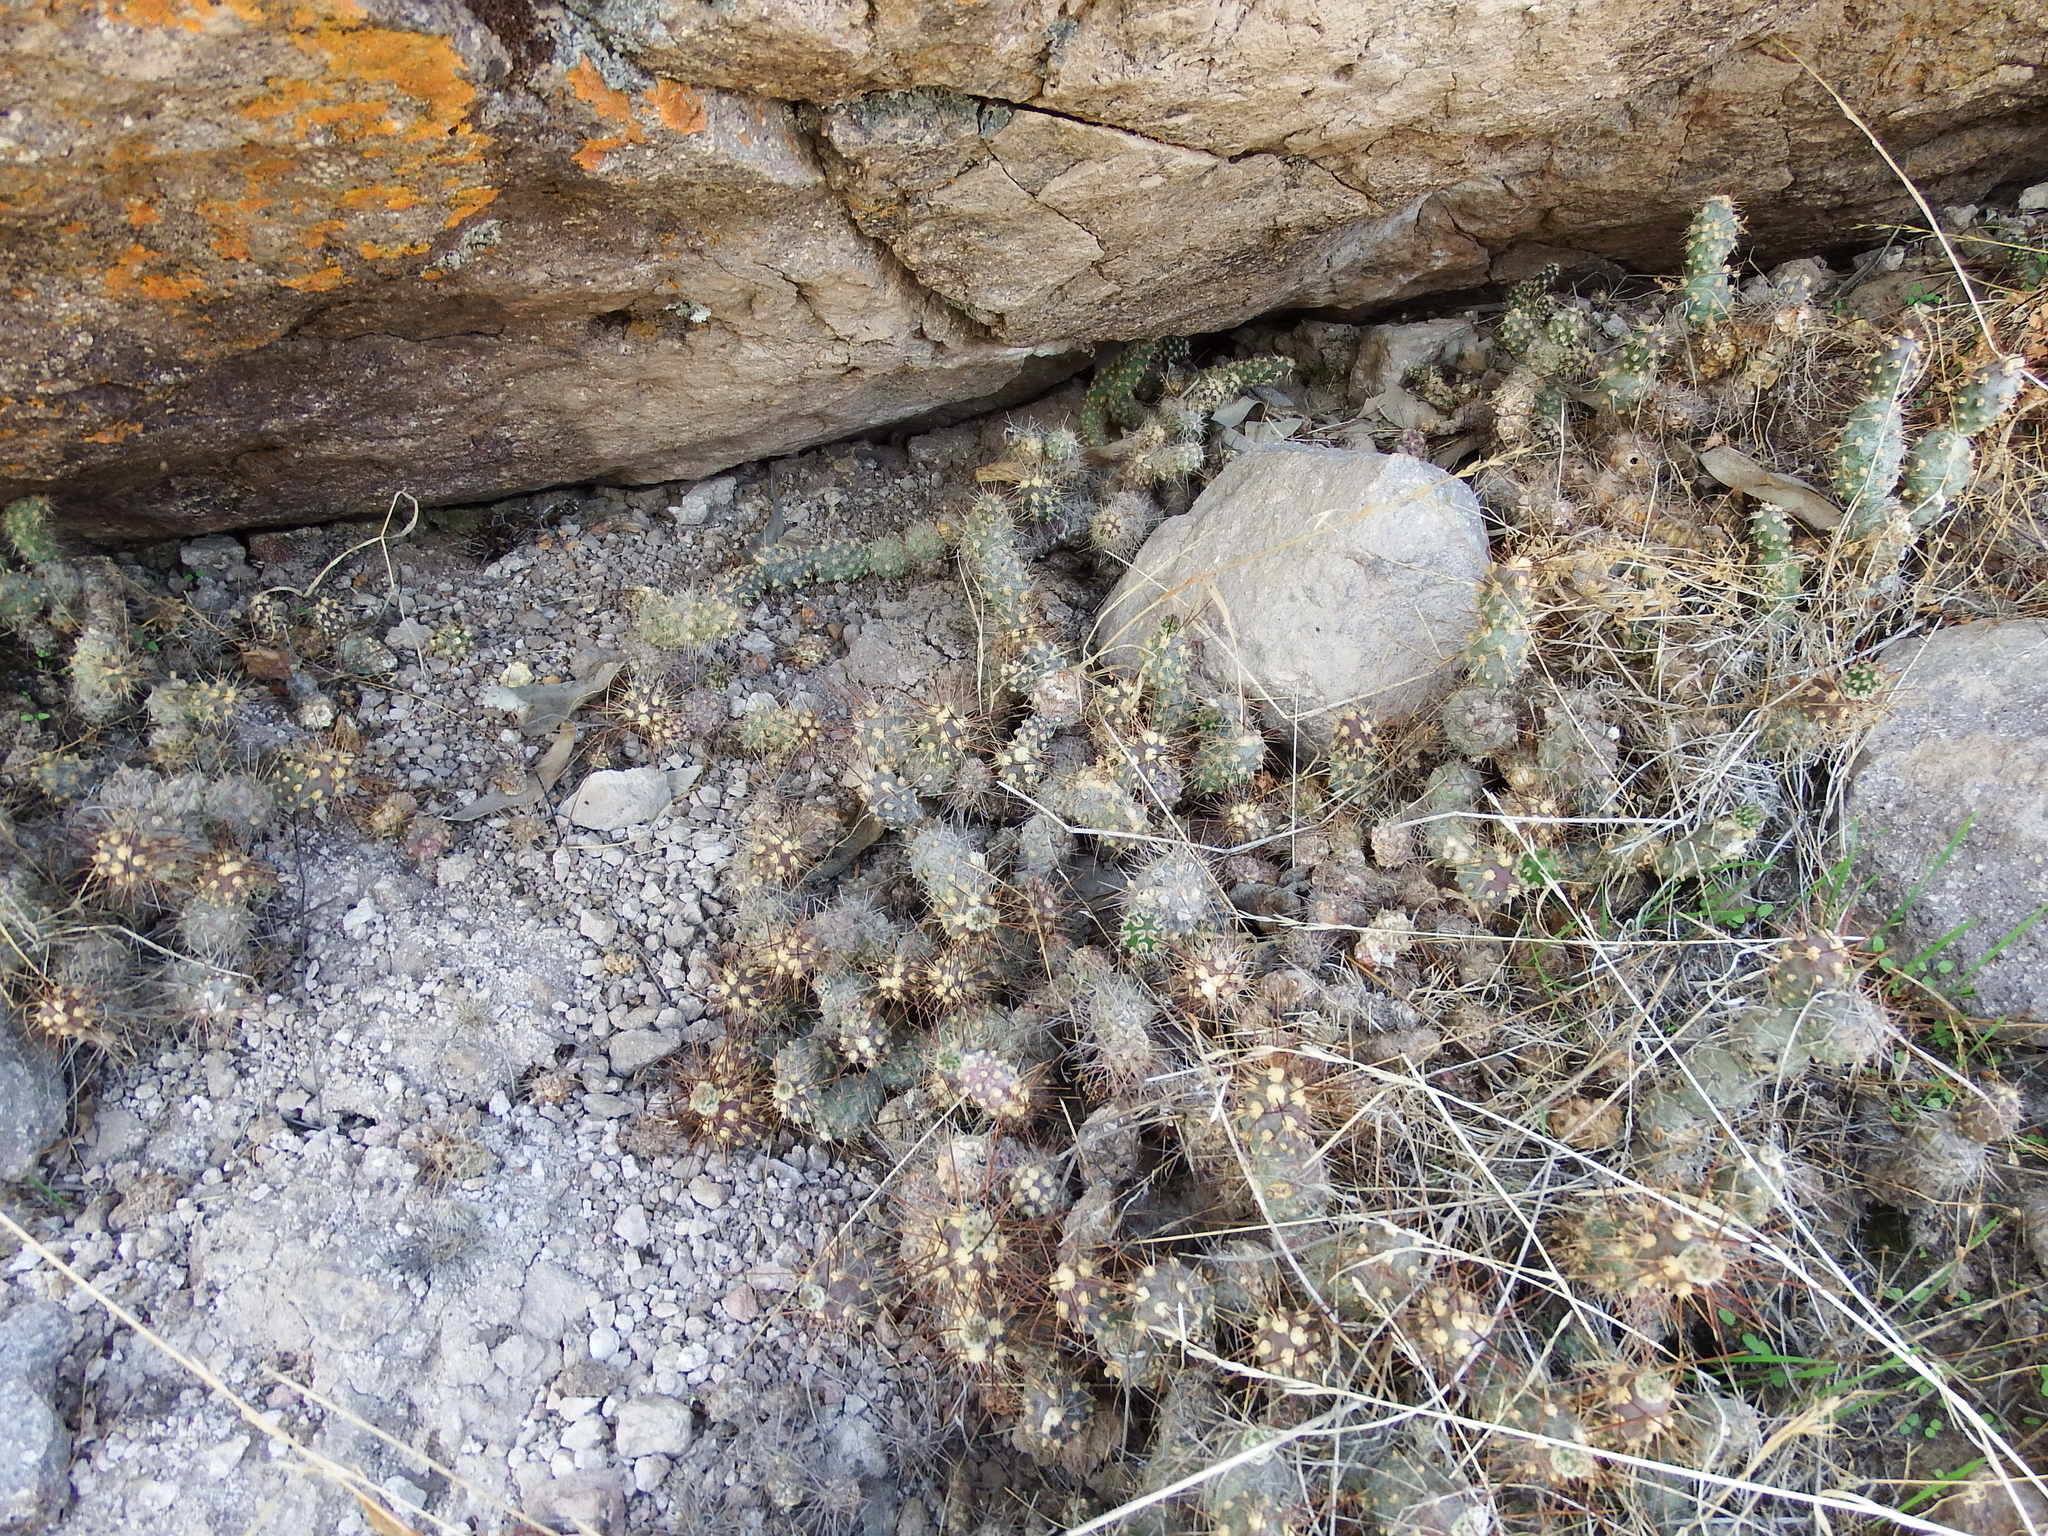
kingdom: Plantae
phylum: Tracheophyta
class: Magnoliopsida
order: Caryophyllales
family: Cactaceae
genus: Cumulopuntia
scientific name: Cumulopuntia leucophaea
